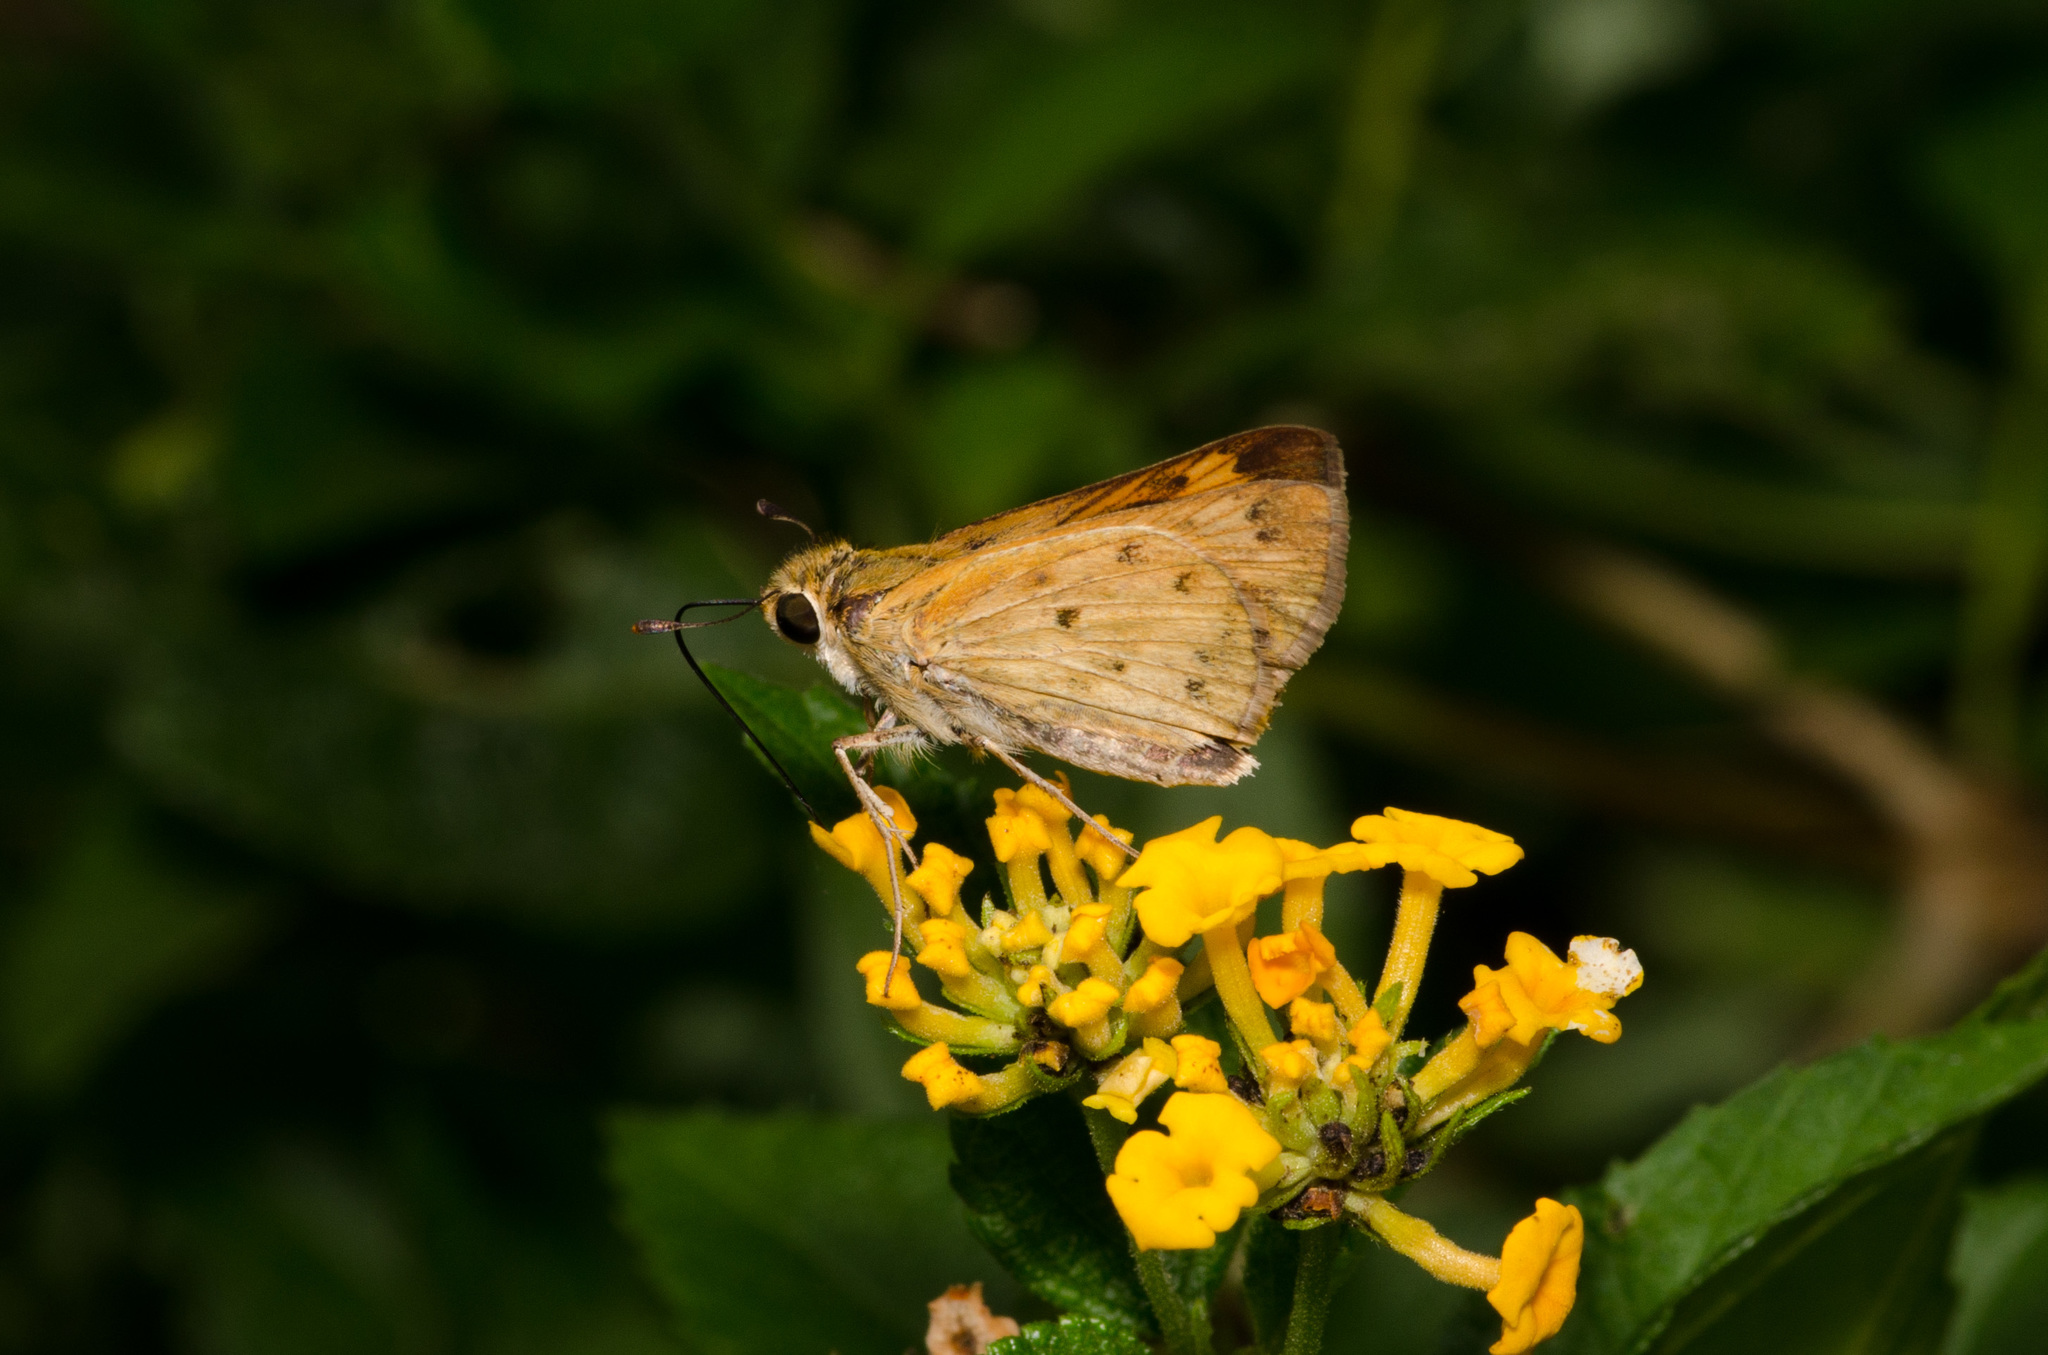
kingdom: Animalia
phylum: Arthropoda
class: Insecta
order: Lepidoptera
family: Hesperiidae
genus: Hylephila
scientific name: Hylephila phyleus
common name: Fiery skipper
